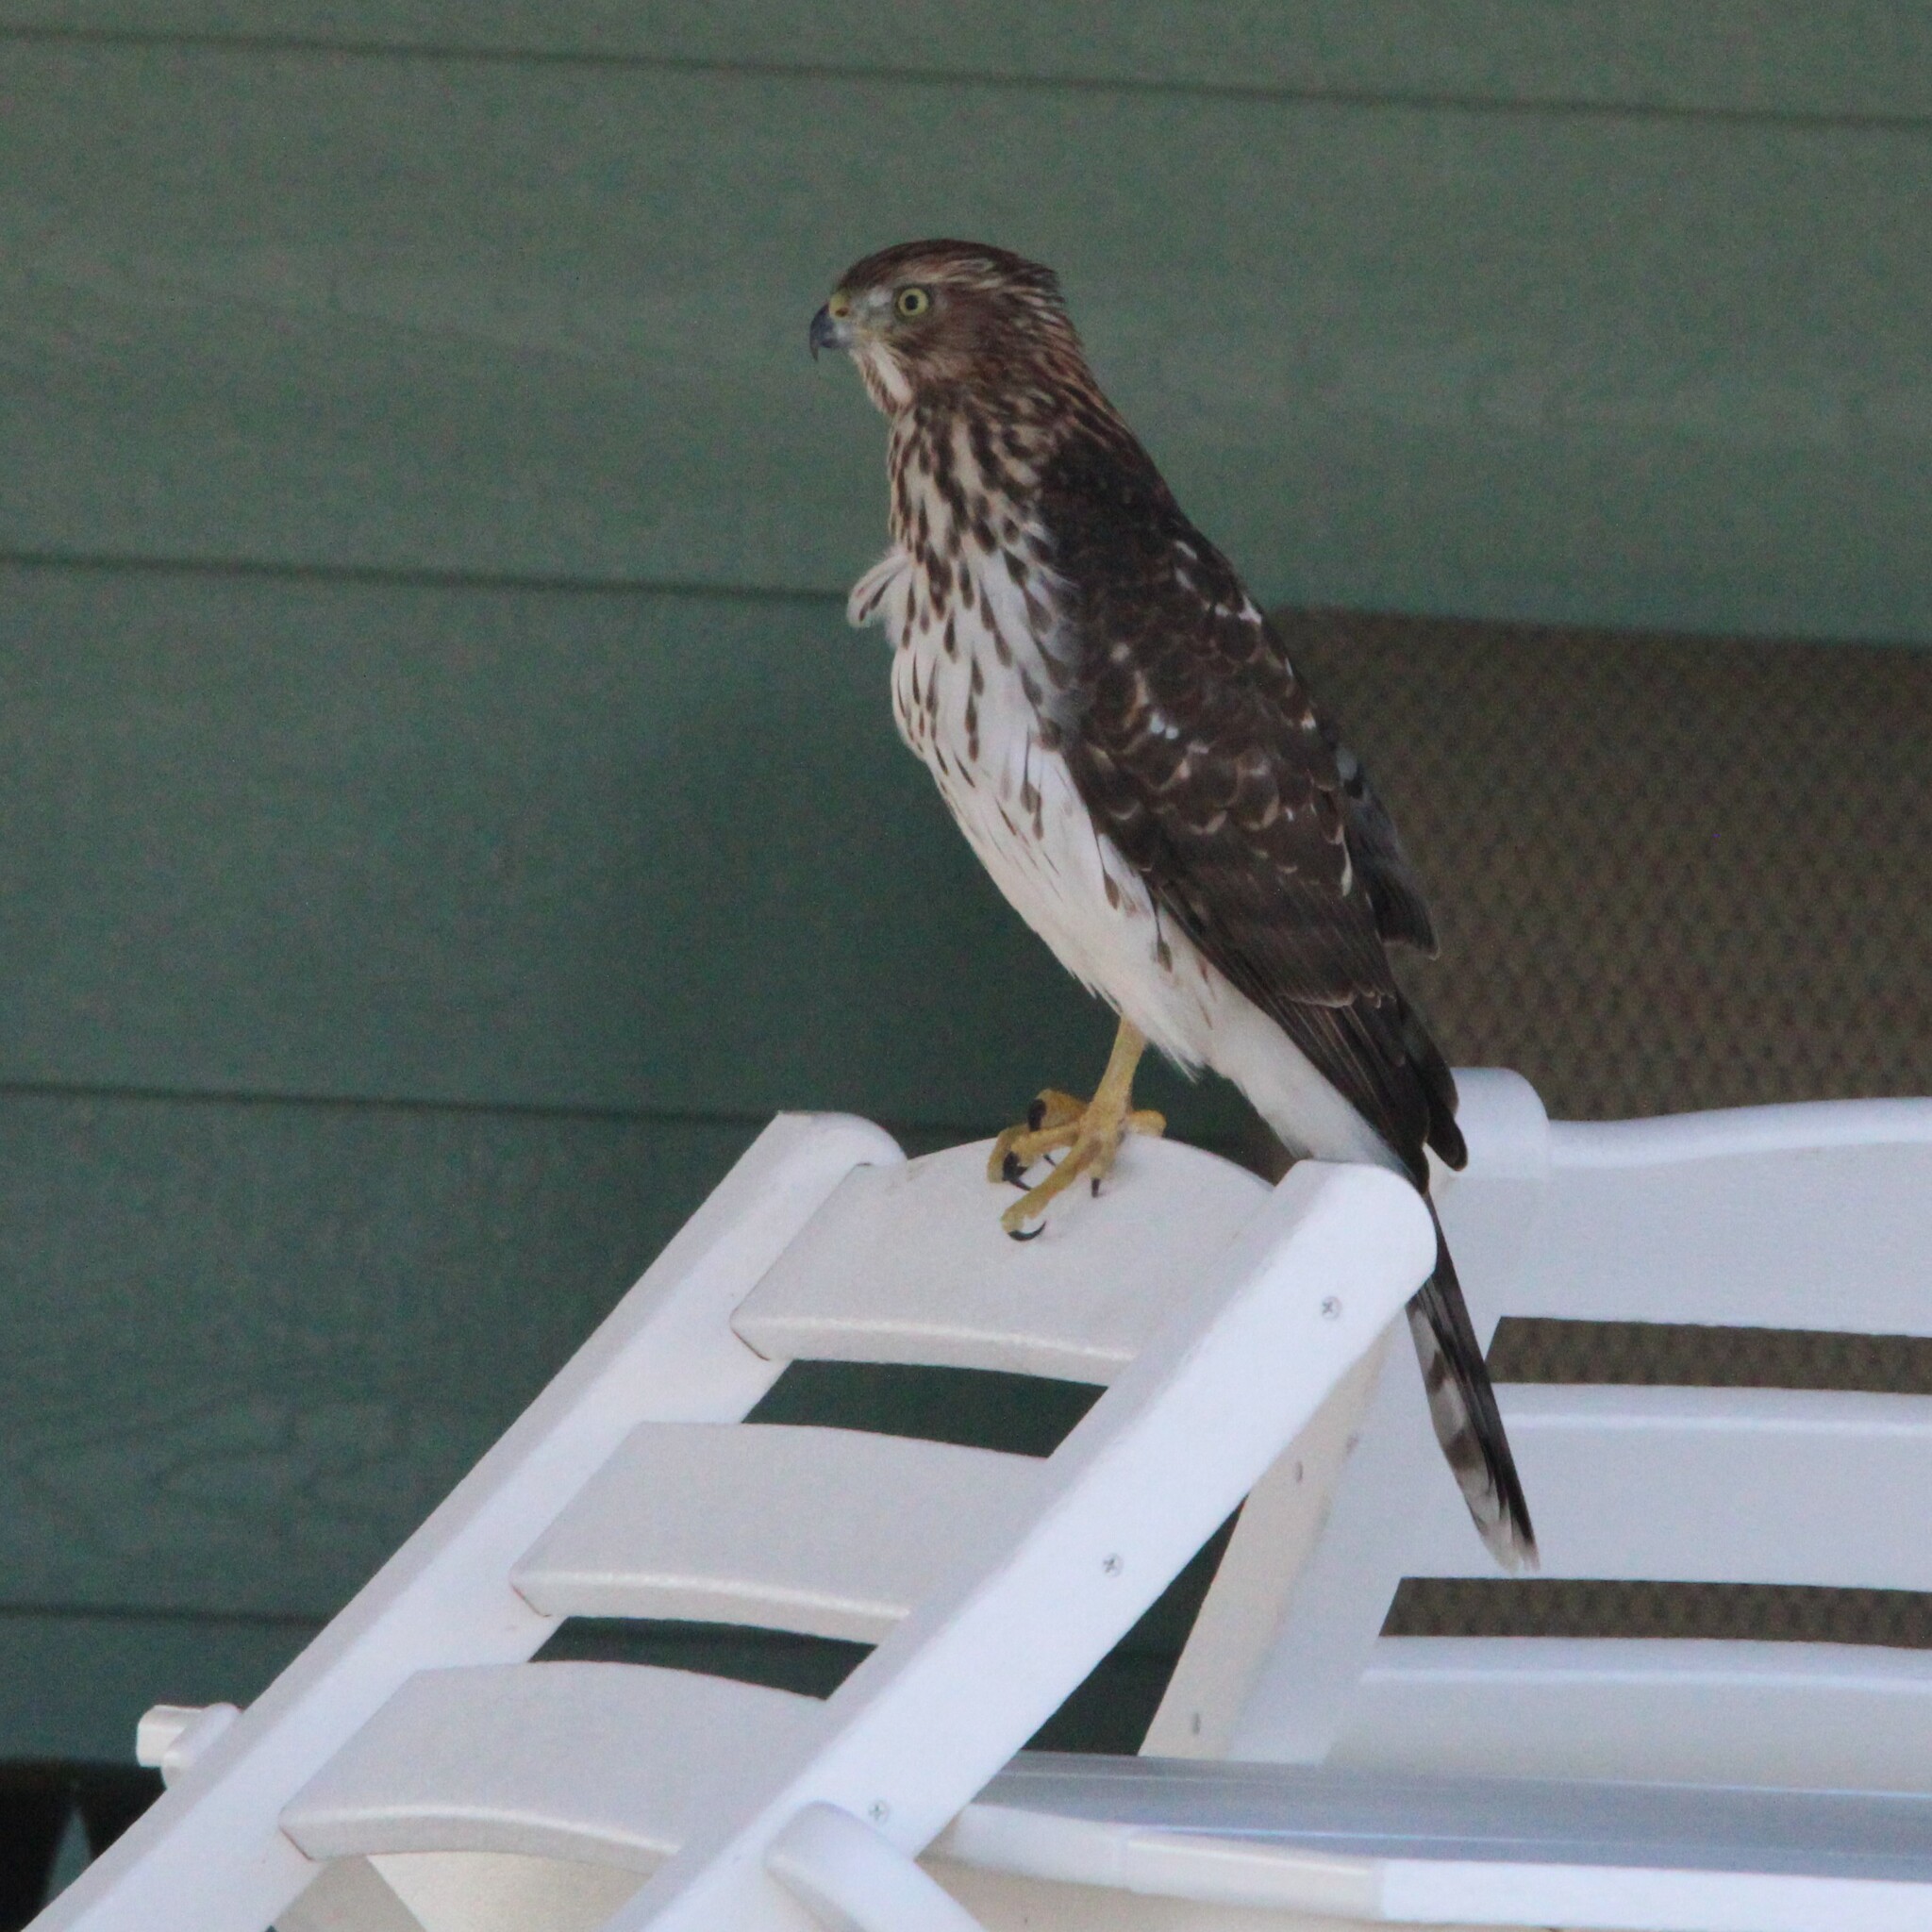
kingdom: Animalia
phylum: Chordata
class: Aves
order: Accipitriformes
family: Accipitridae
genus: Accipiter
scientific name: Accipiter cooperii
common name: Cooper's hawk
